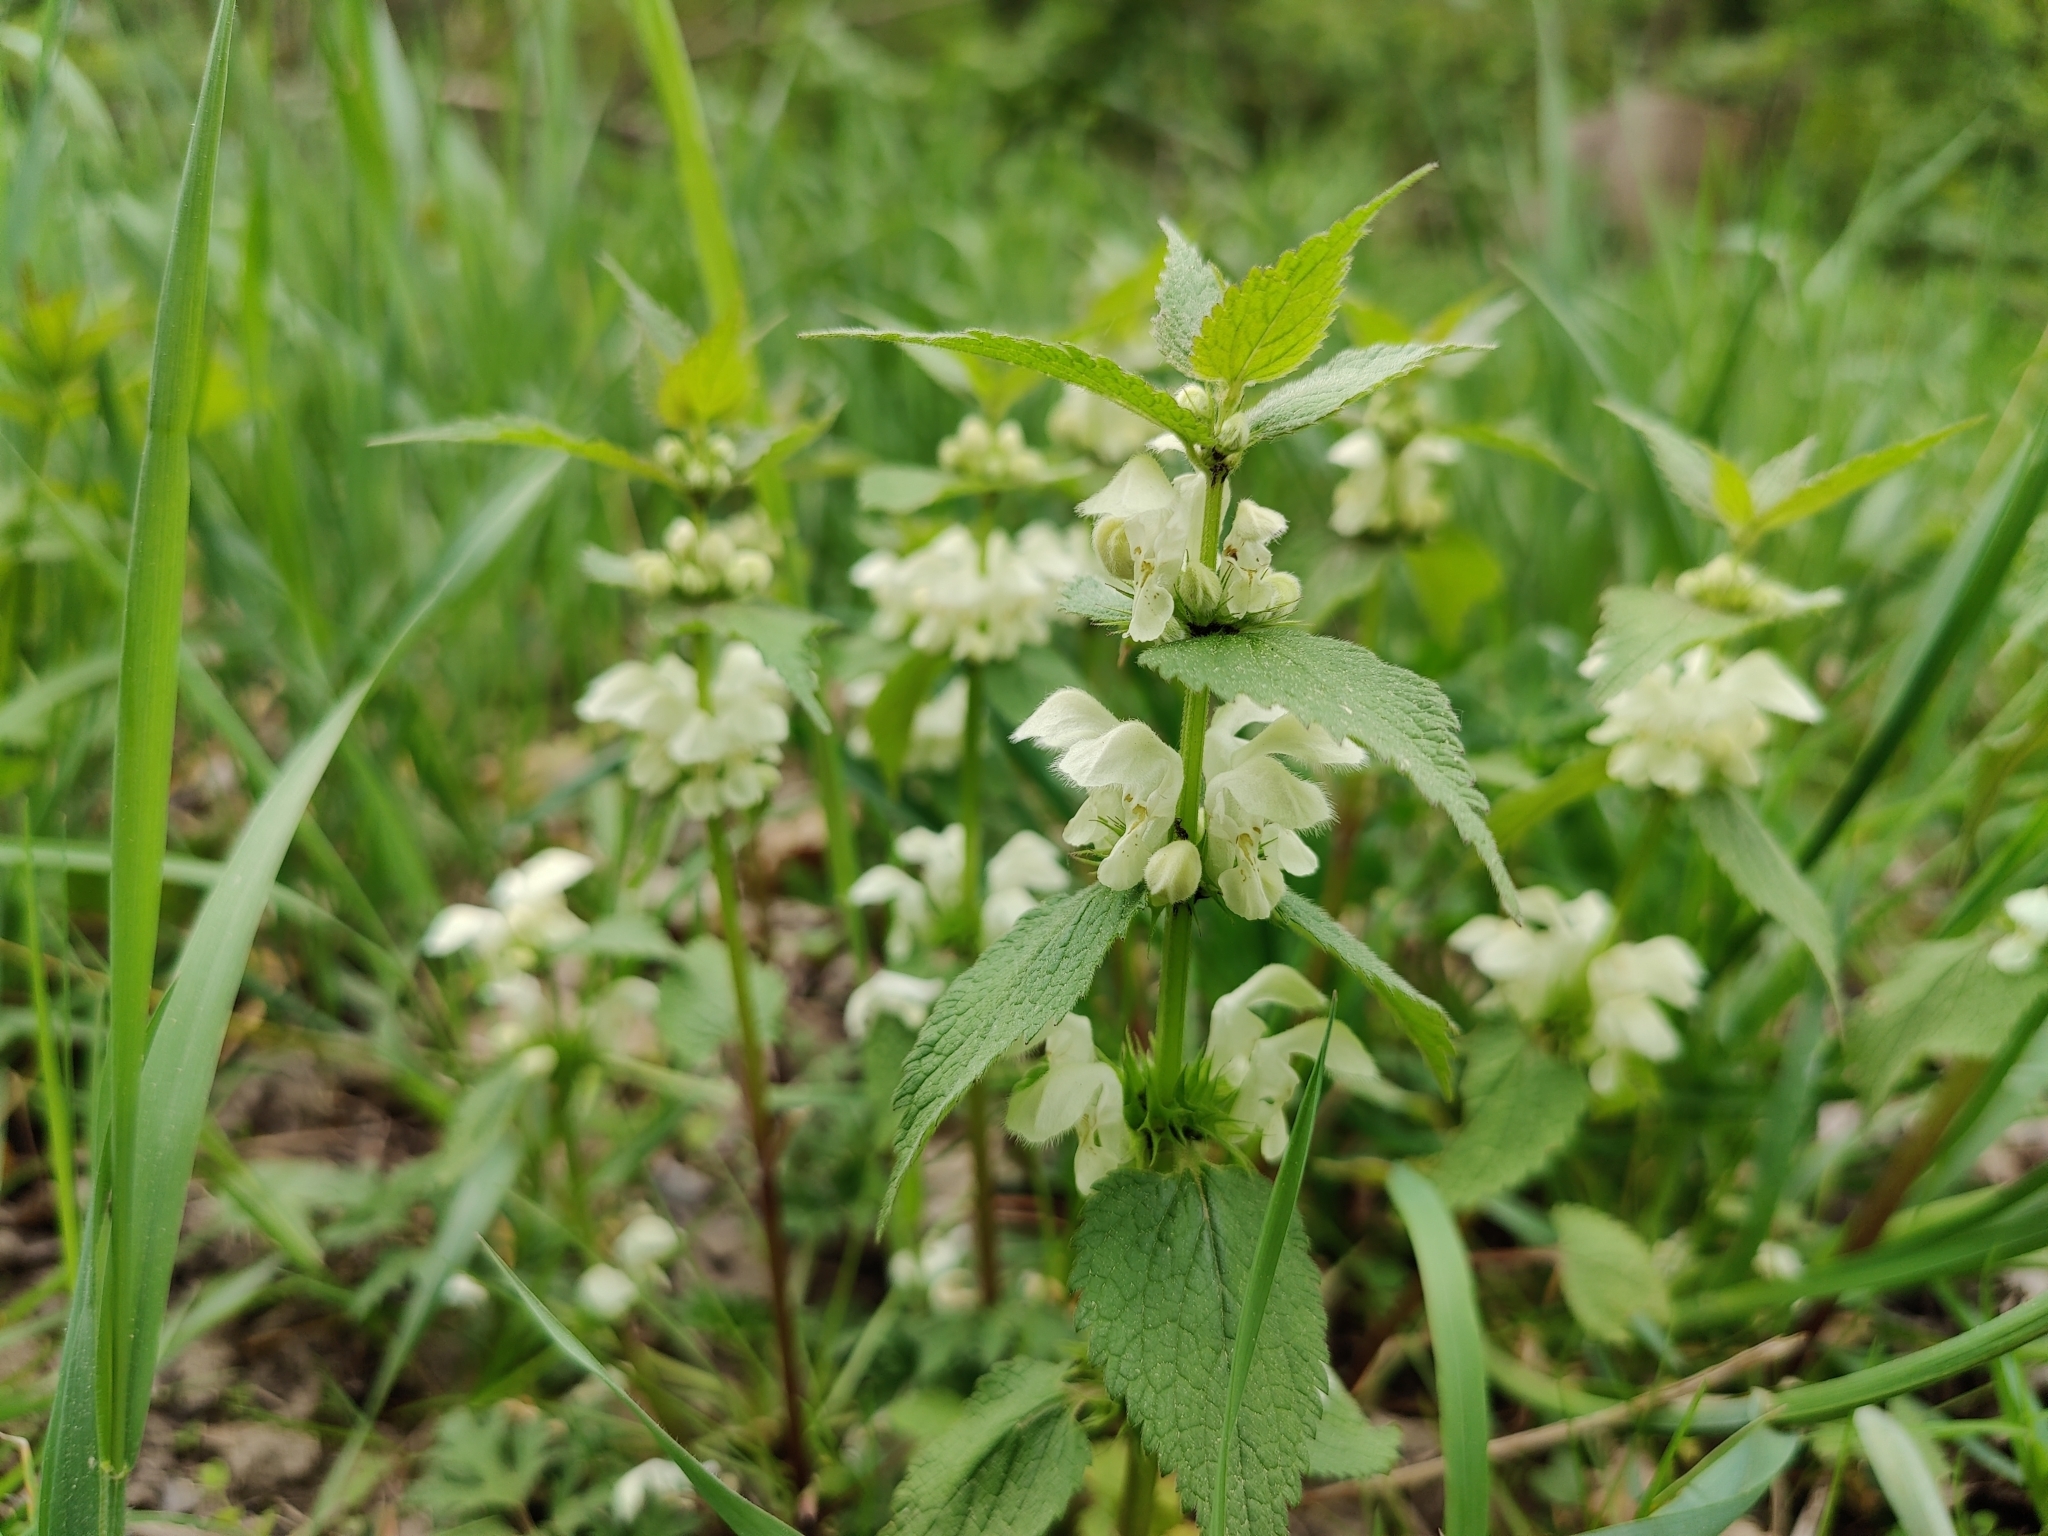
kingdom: Plantae
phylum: Tracheophyta
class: Magnoliopsida
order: Lamiales
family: Lamiaceae
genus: Lamium
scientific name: Lamium album
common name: White dead-nettle
